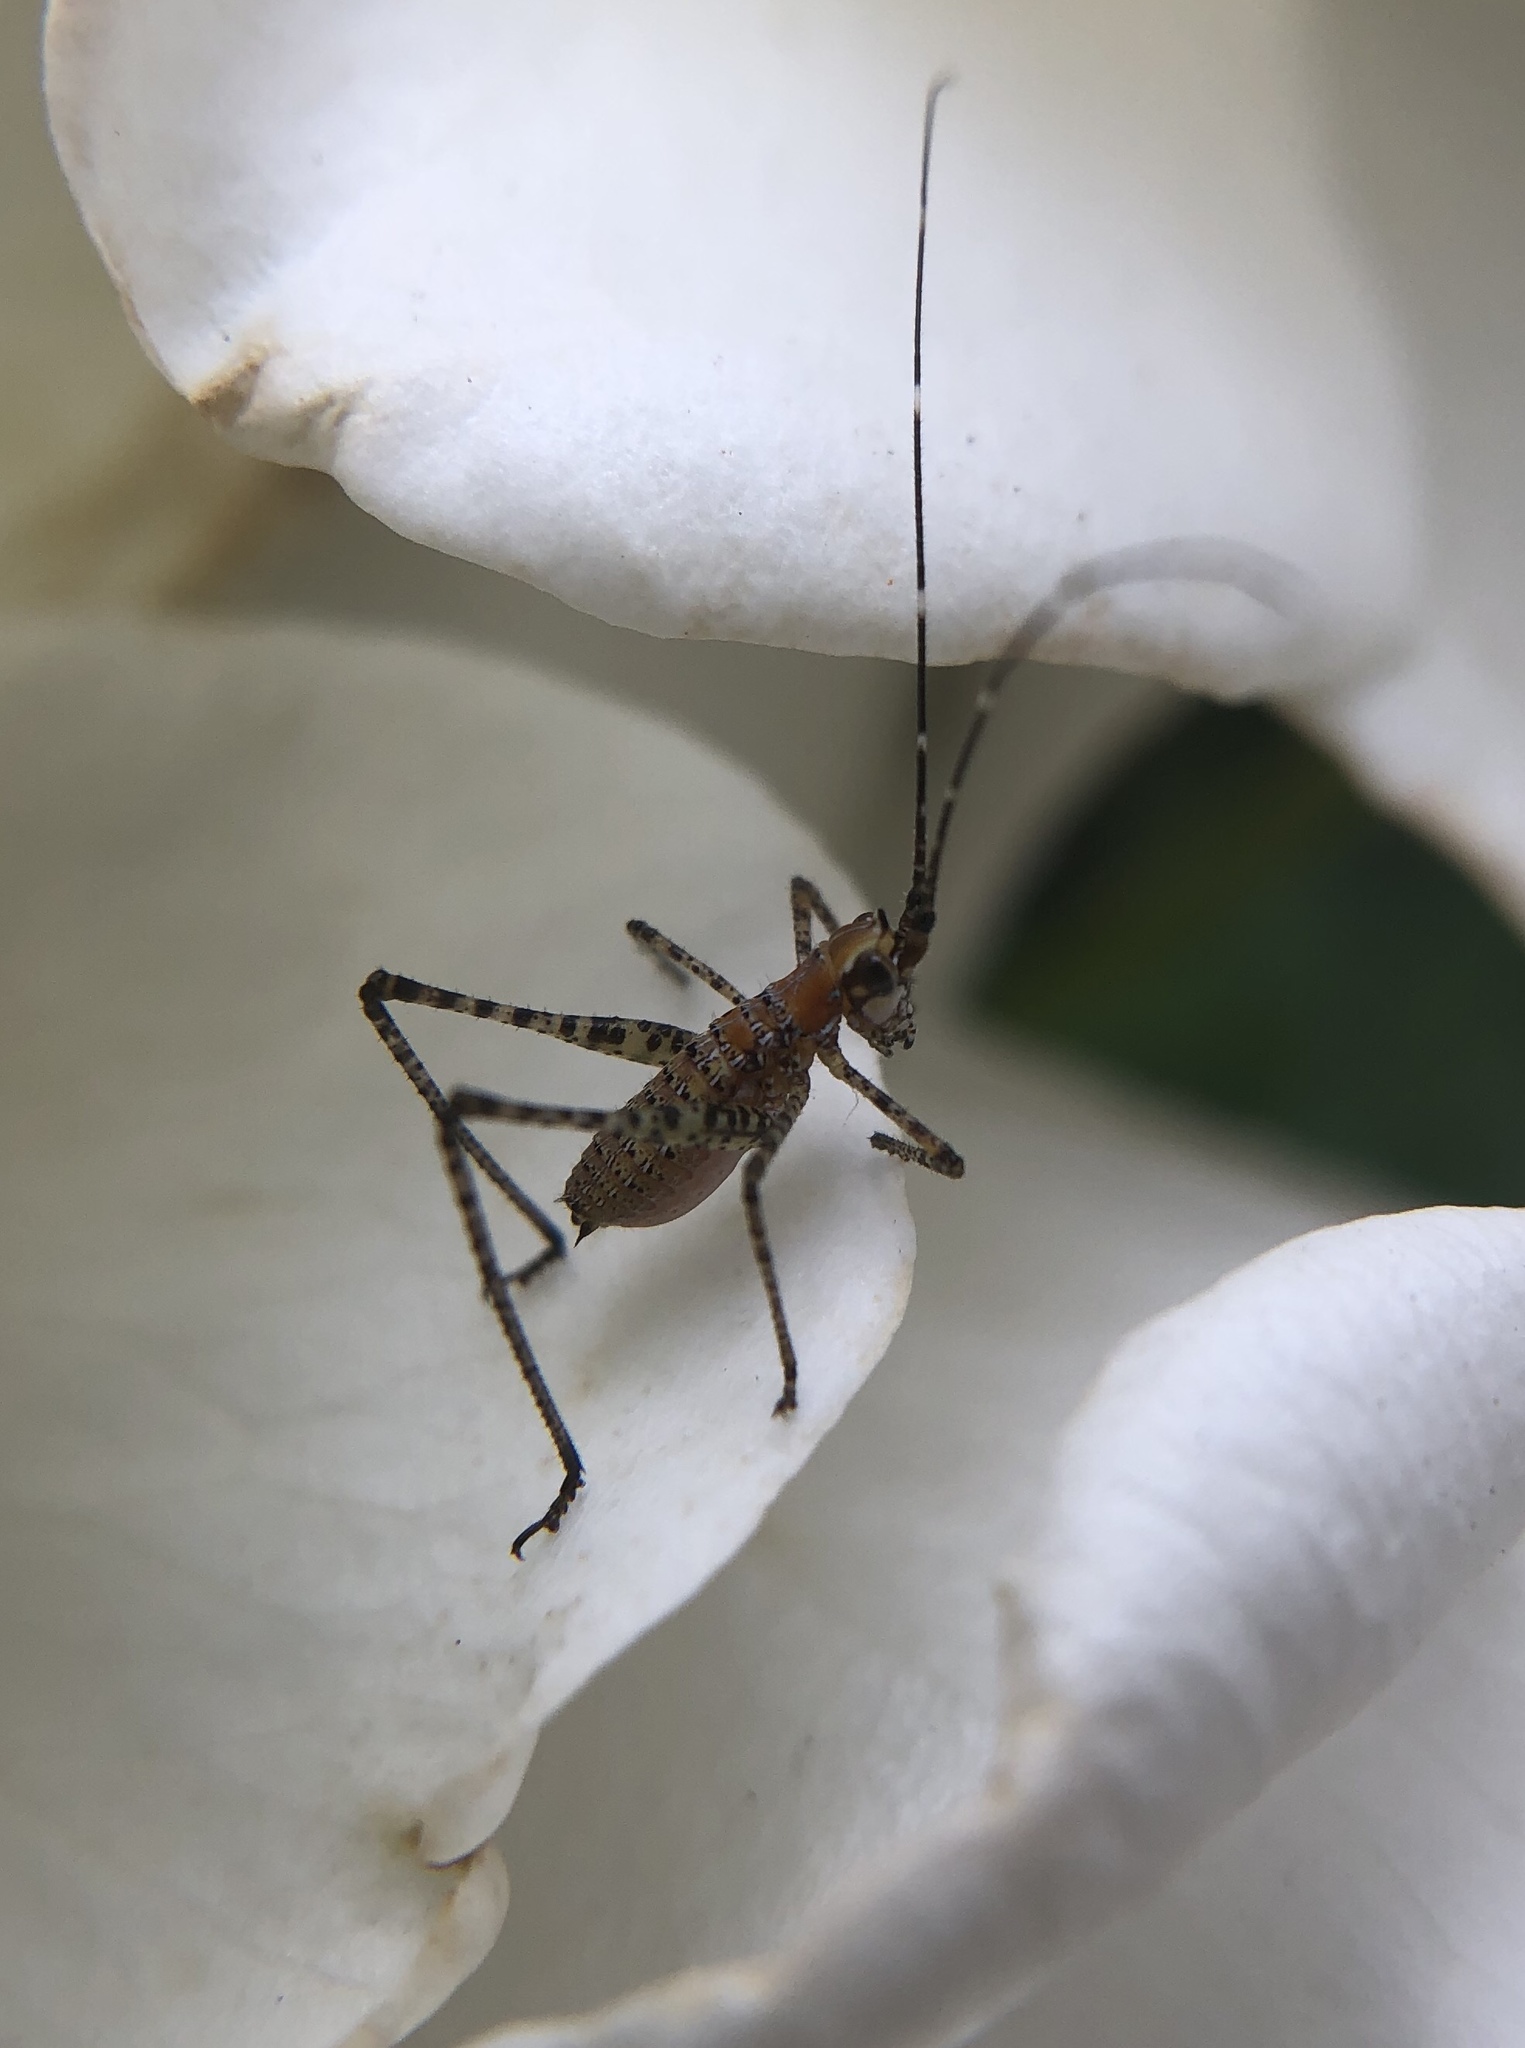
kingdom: Animalia
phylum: Arthropoda
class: Insecta
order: Orthoptera
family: Tettigoniidae
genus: Scudderia
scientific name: Scudderia
